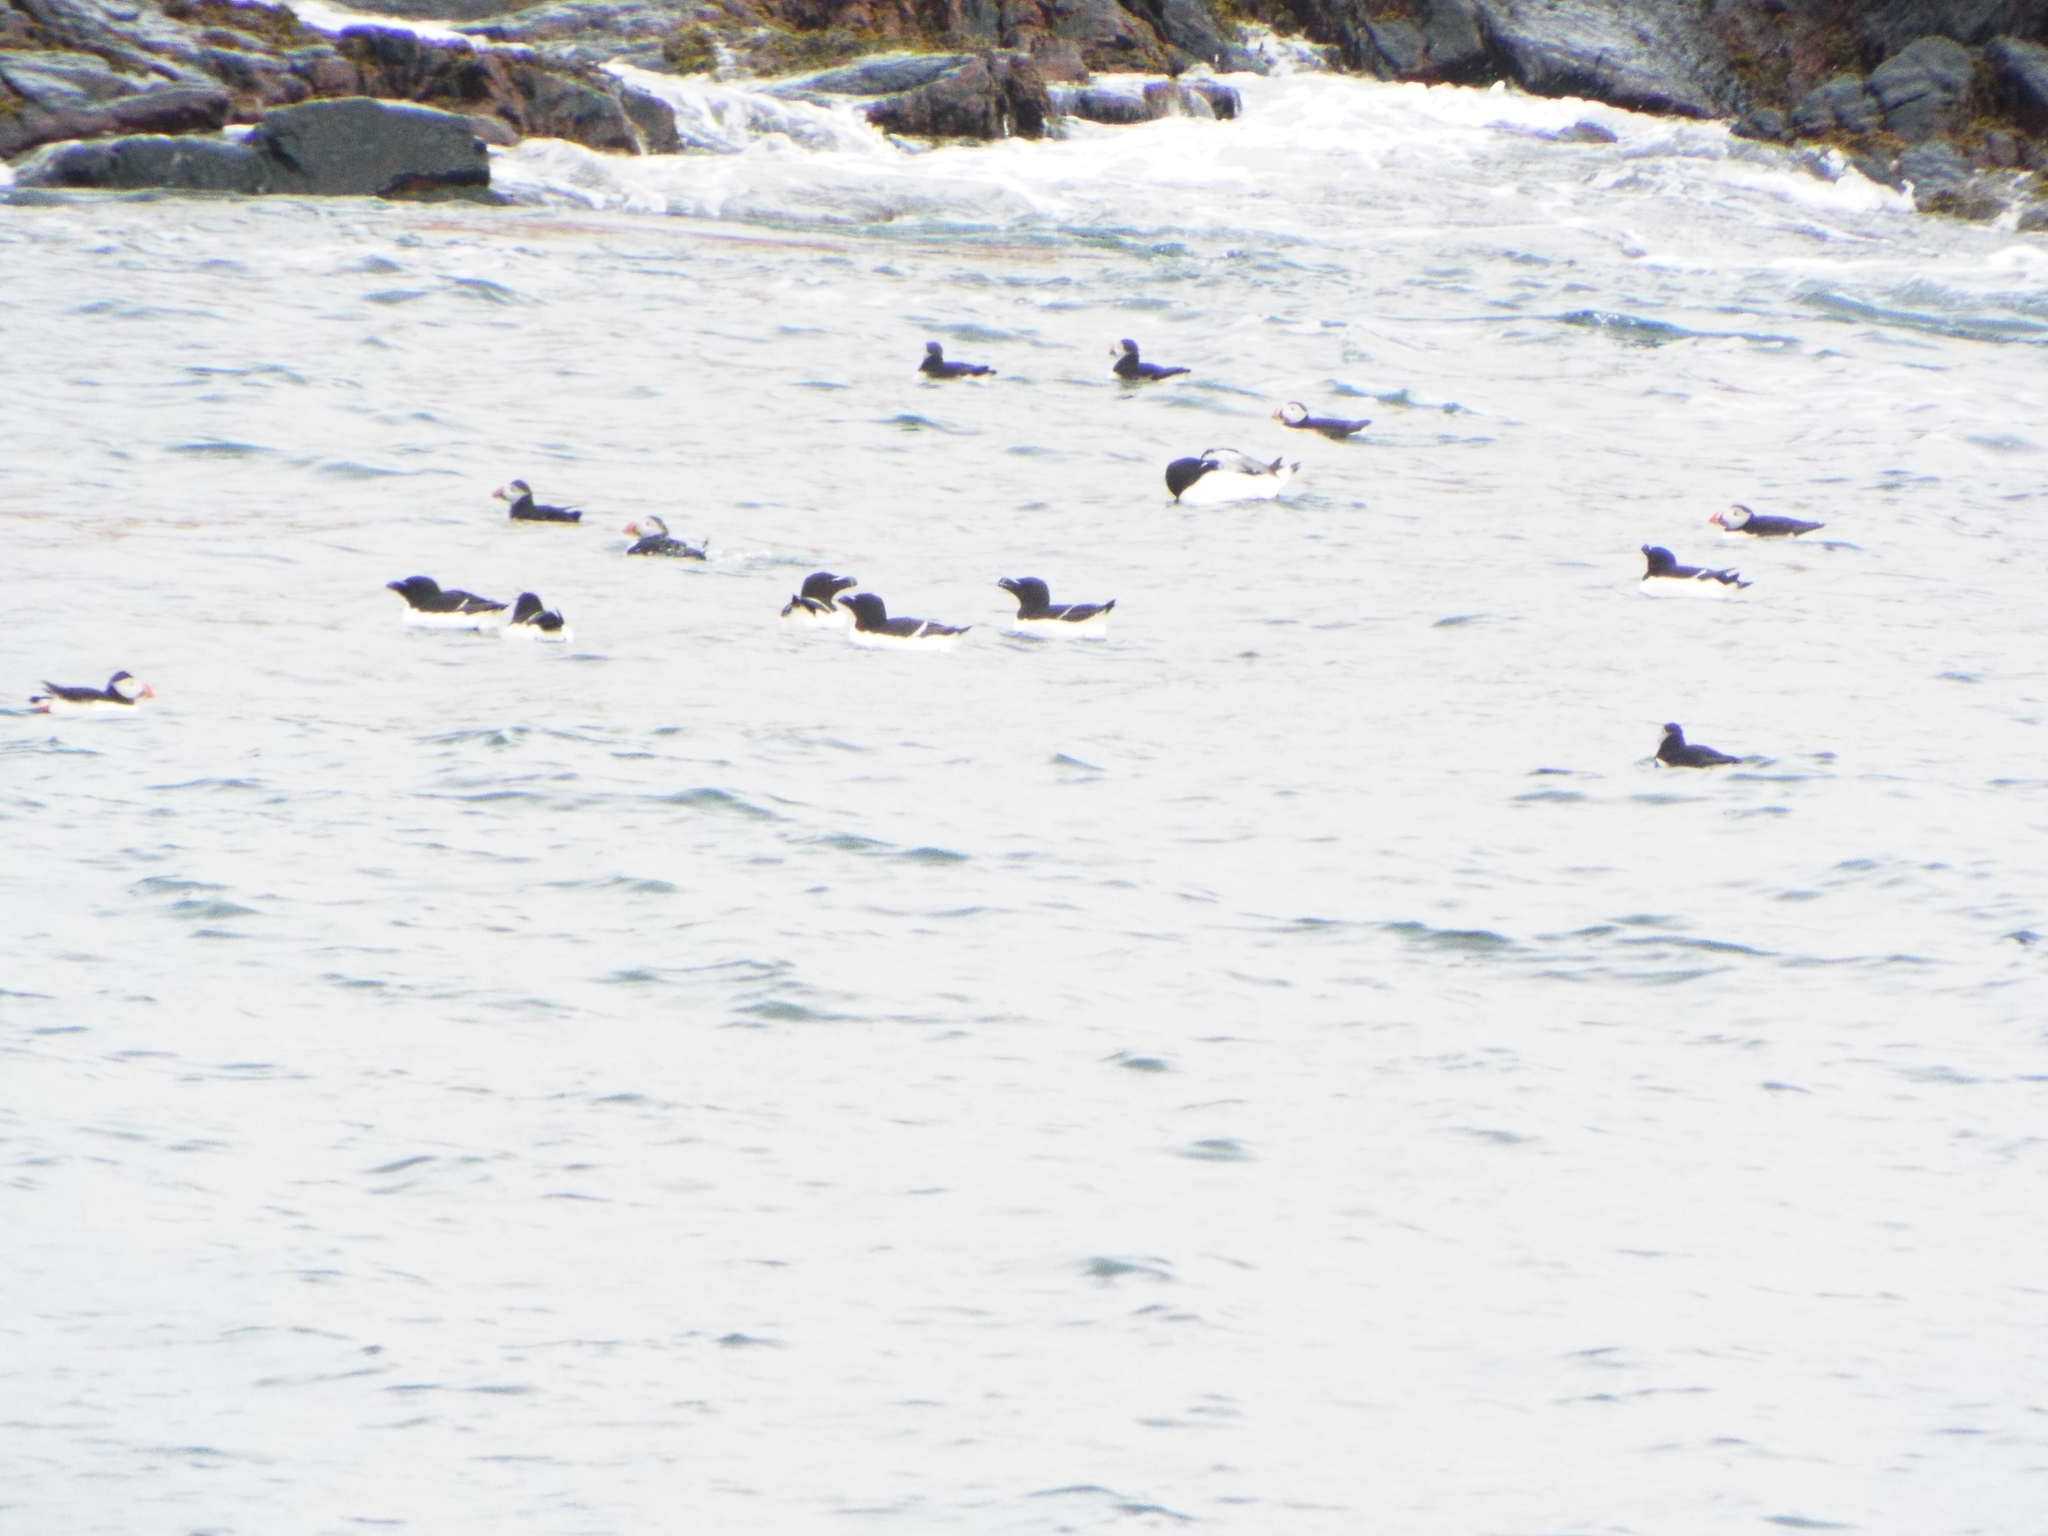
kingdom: Animalia
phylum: Chordata
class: Aves
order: Charadriiformes
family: Alcidae
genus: Alca
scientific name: Alca torda
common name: Razorbill
